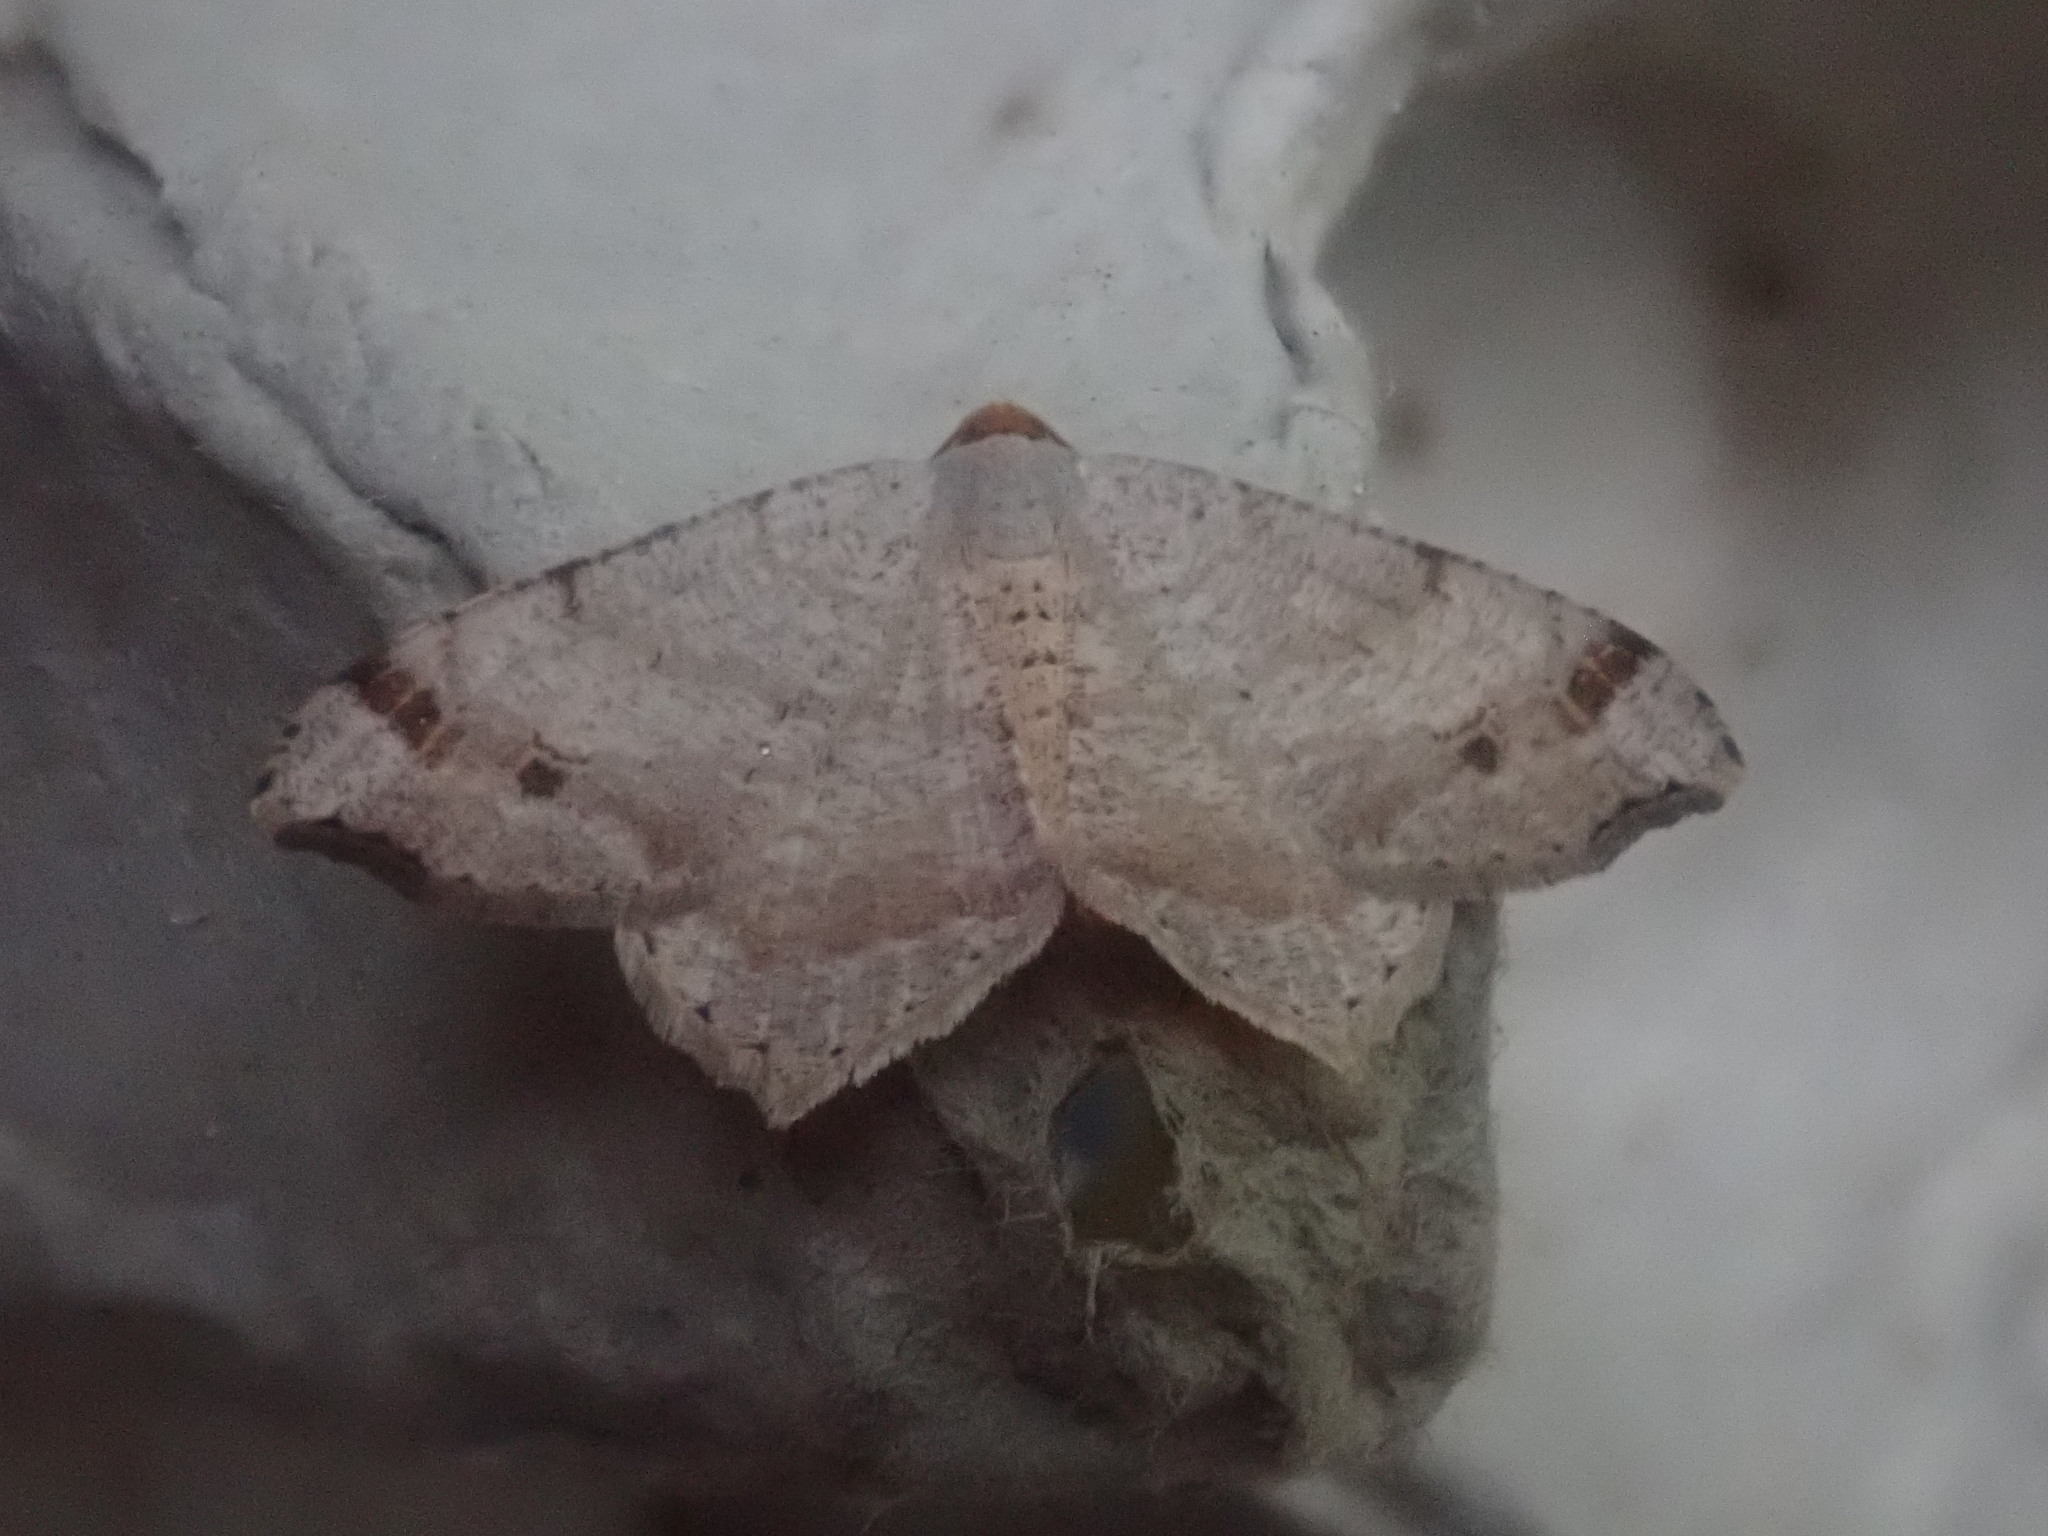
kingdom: Animalia
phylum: Arthropoda
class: Insecta
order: Lepidoptera
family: Geometridae
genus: Macaria
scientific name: Macaria bisignata
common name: Red-headed inchworm
